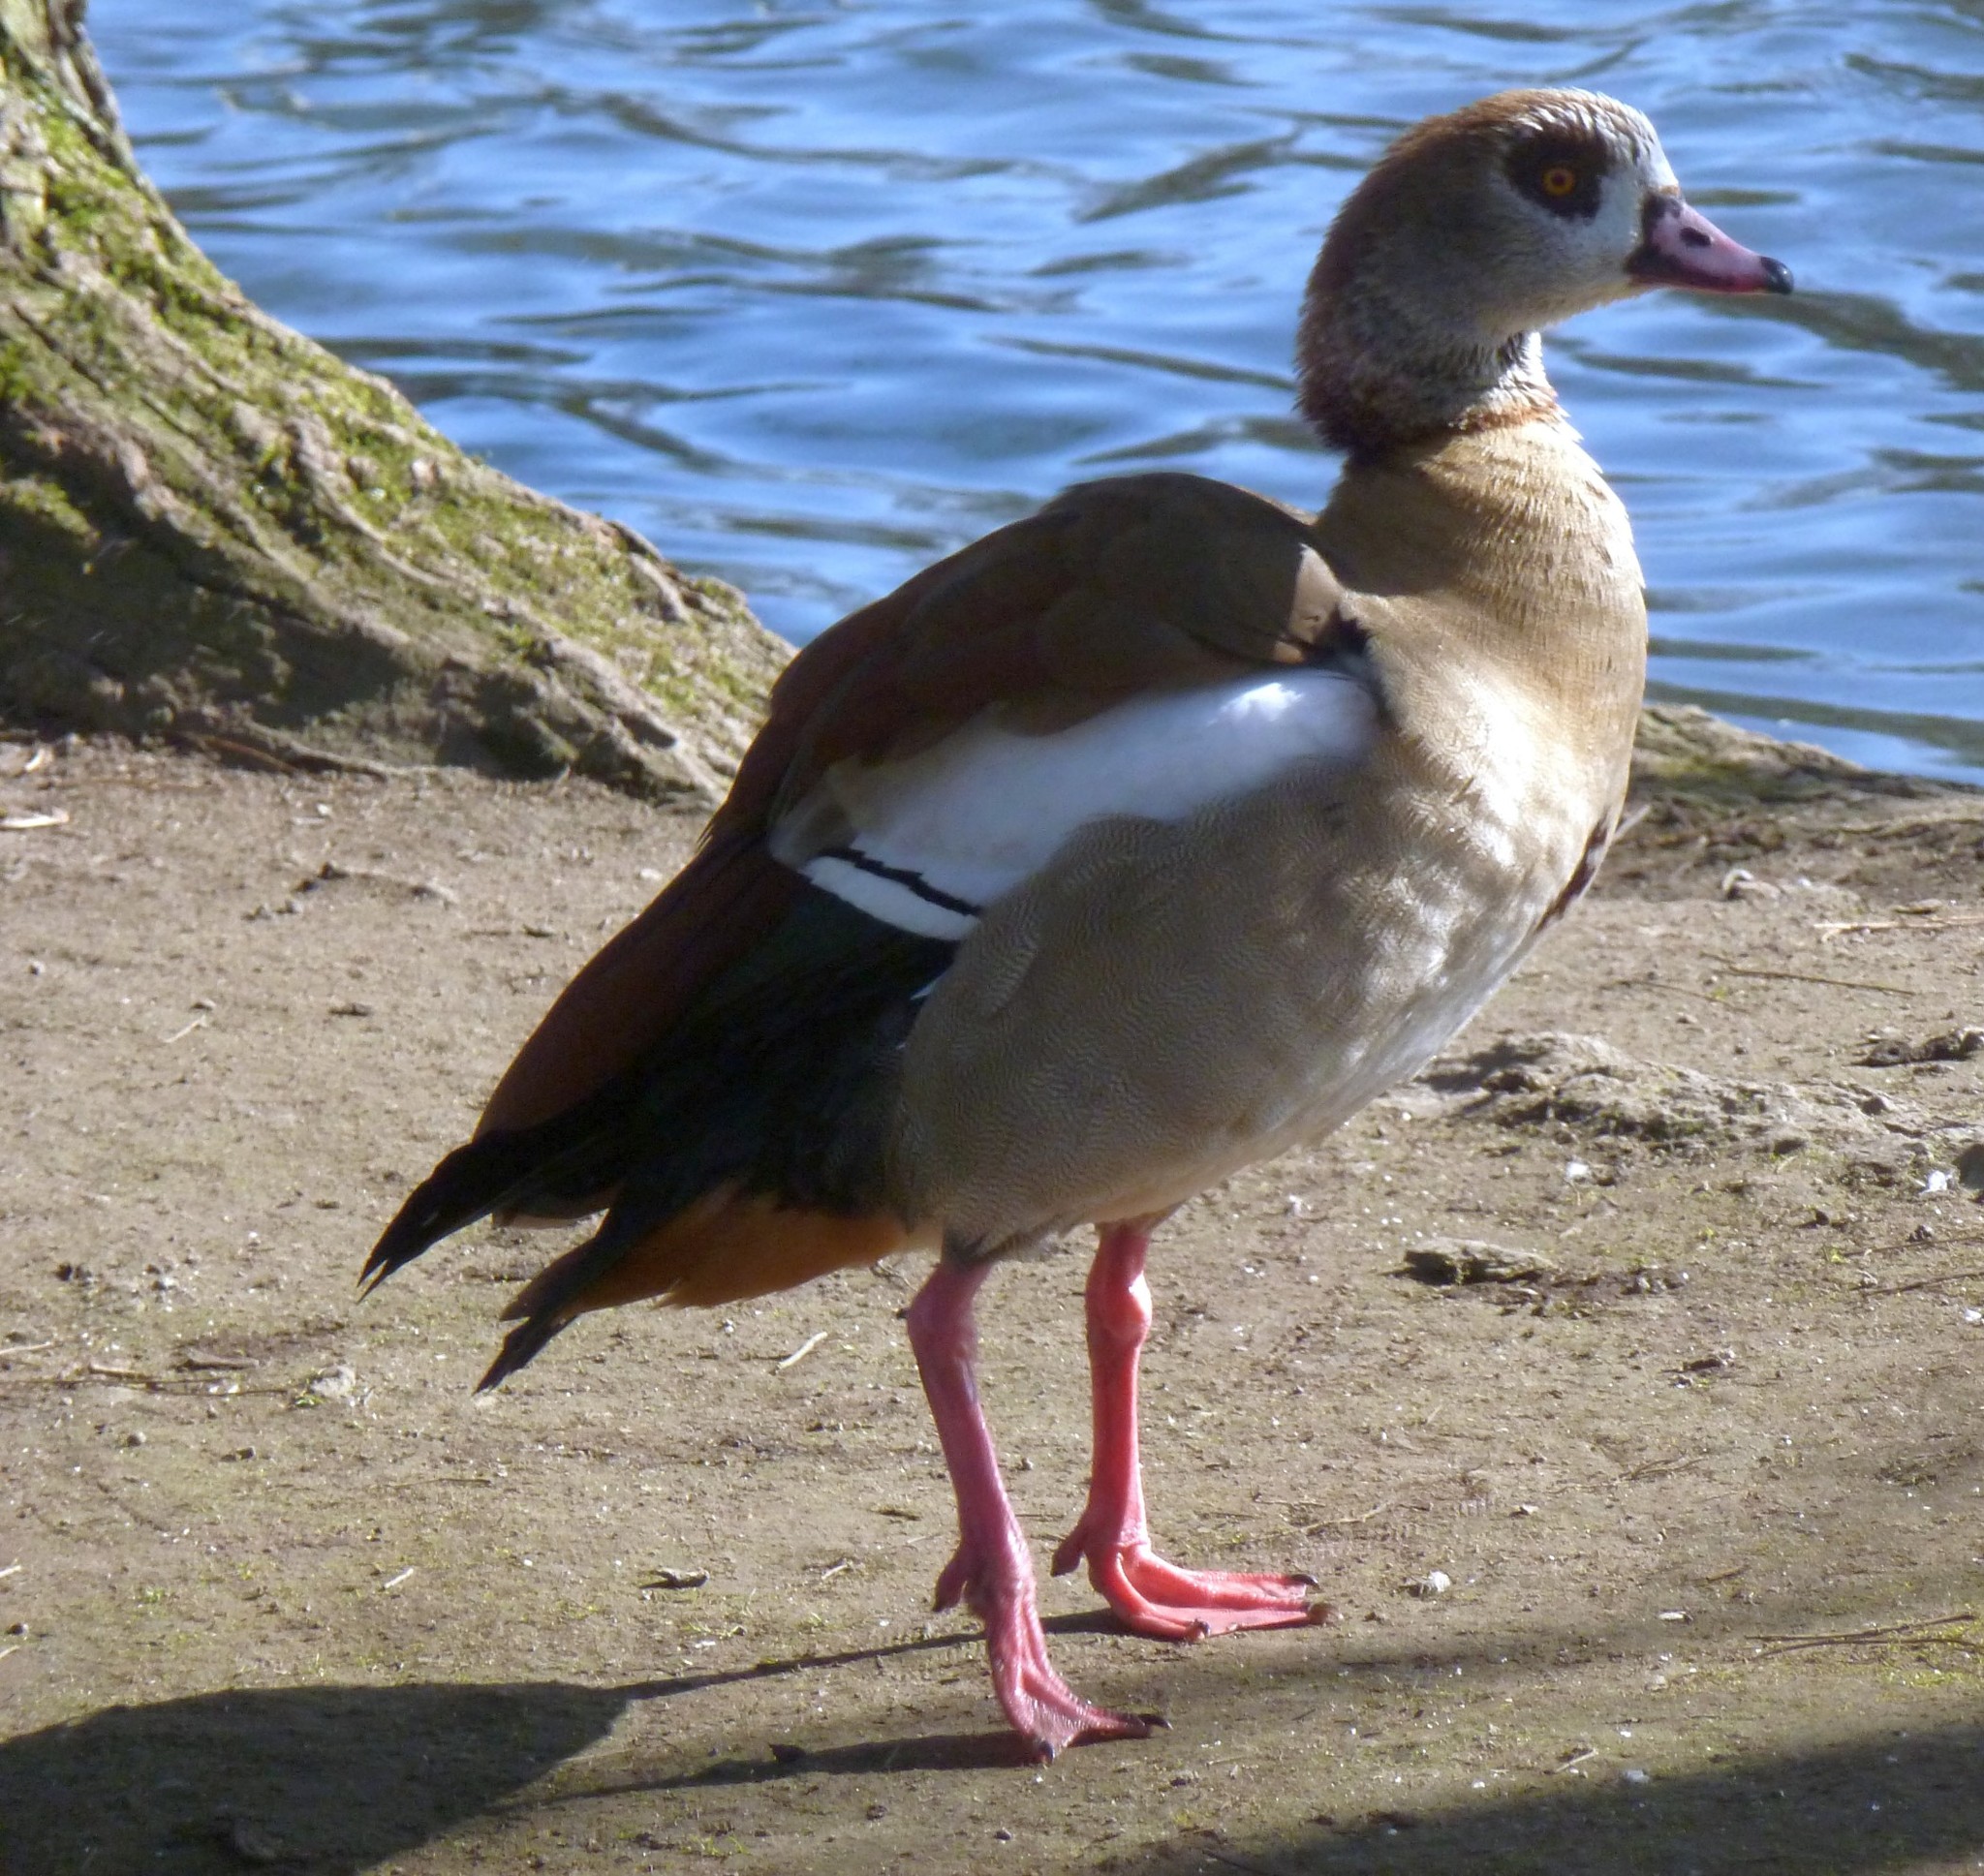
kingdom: Animalia
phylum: Chordata
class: Aves
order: Anseriformes
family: Anatidae
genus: Alopochen
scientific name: Alopochen aegyptiaca
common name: Egyptian goose
